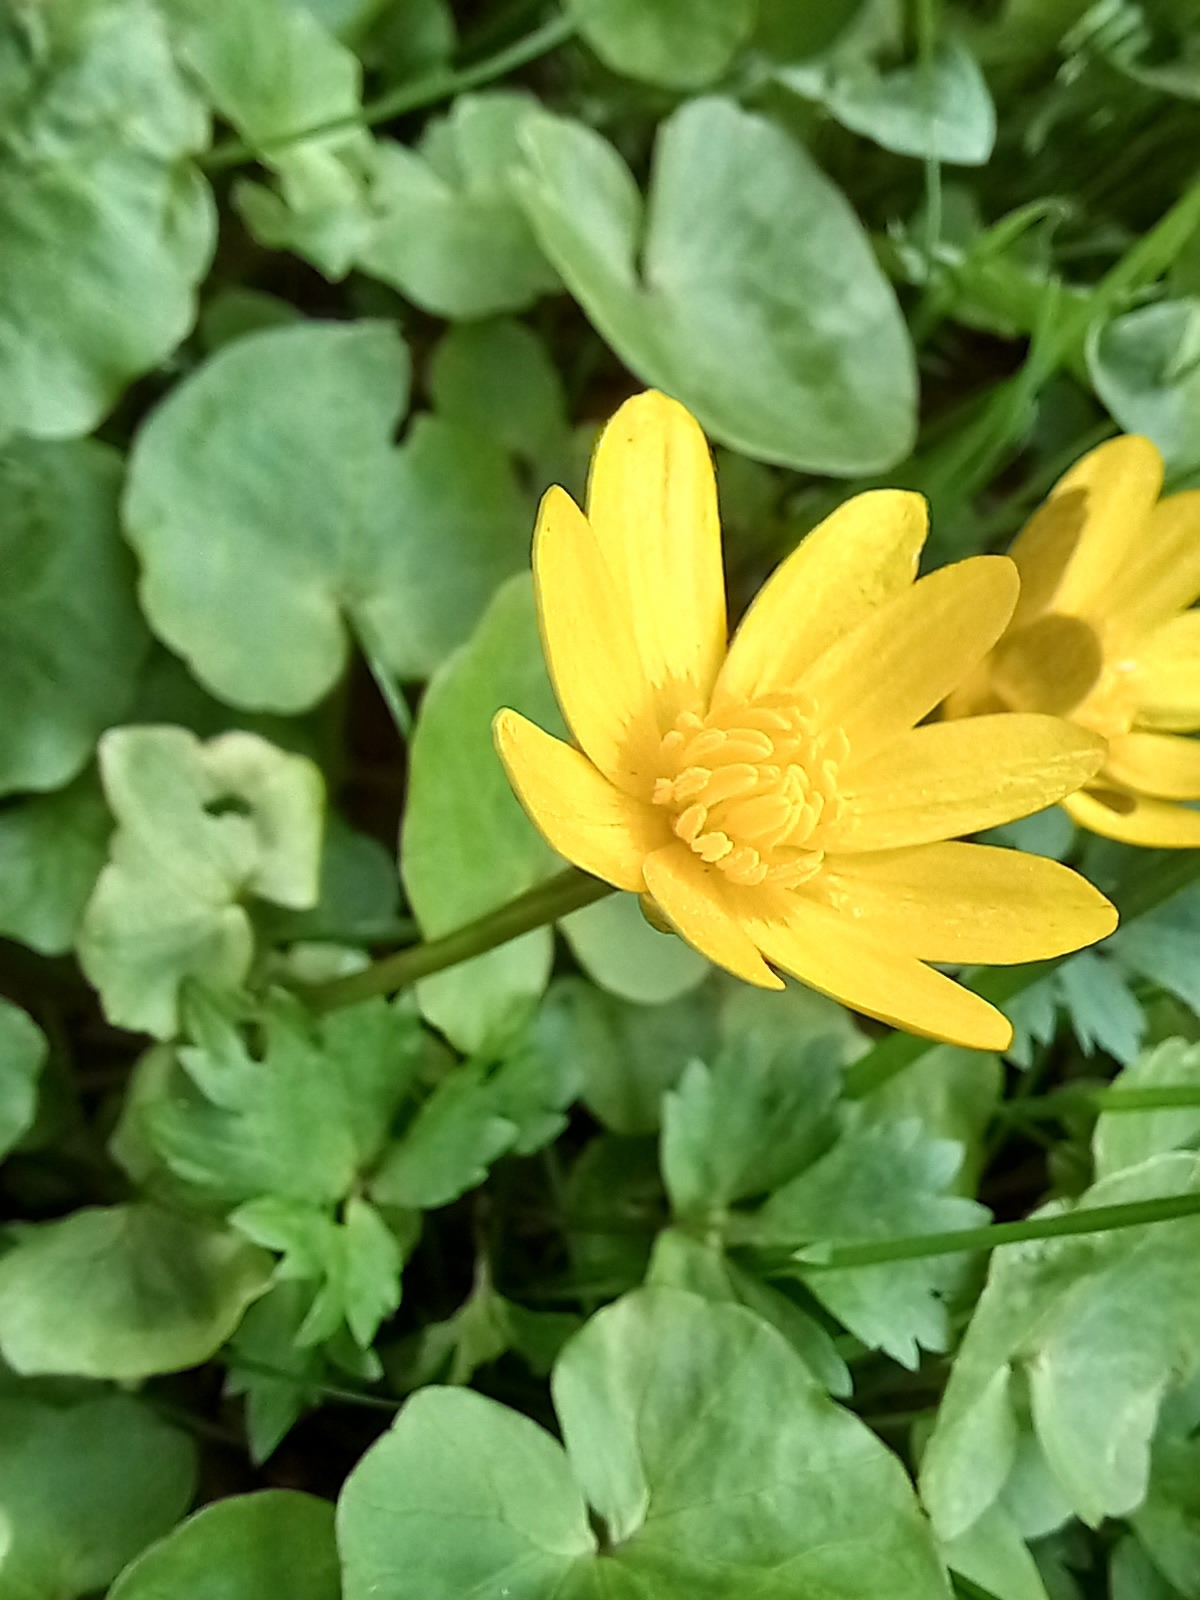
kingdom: Plantae
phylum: Tracheophyta
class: Magnoliopsida
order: Ranunculales
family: Ranunculaceae
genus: Ficaria
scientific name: Ficaria verna
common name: Lesser celandine
